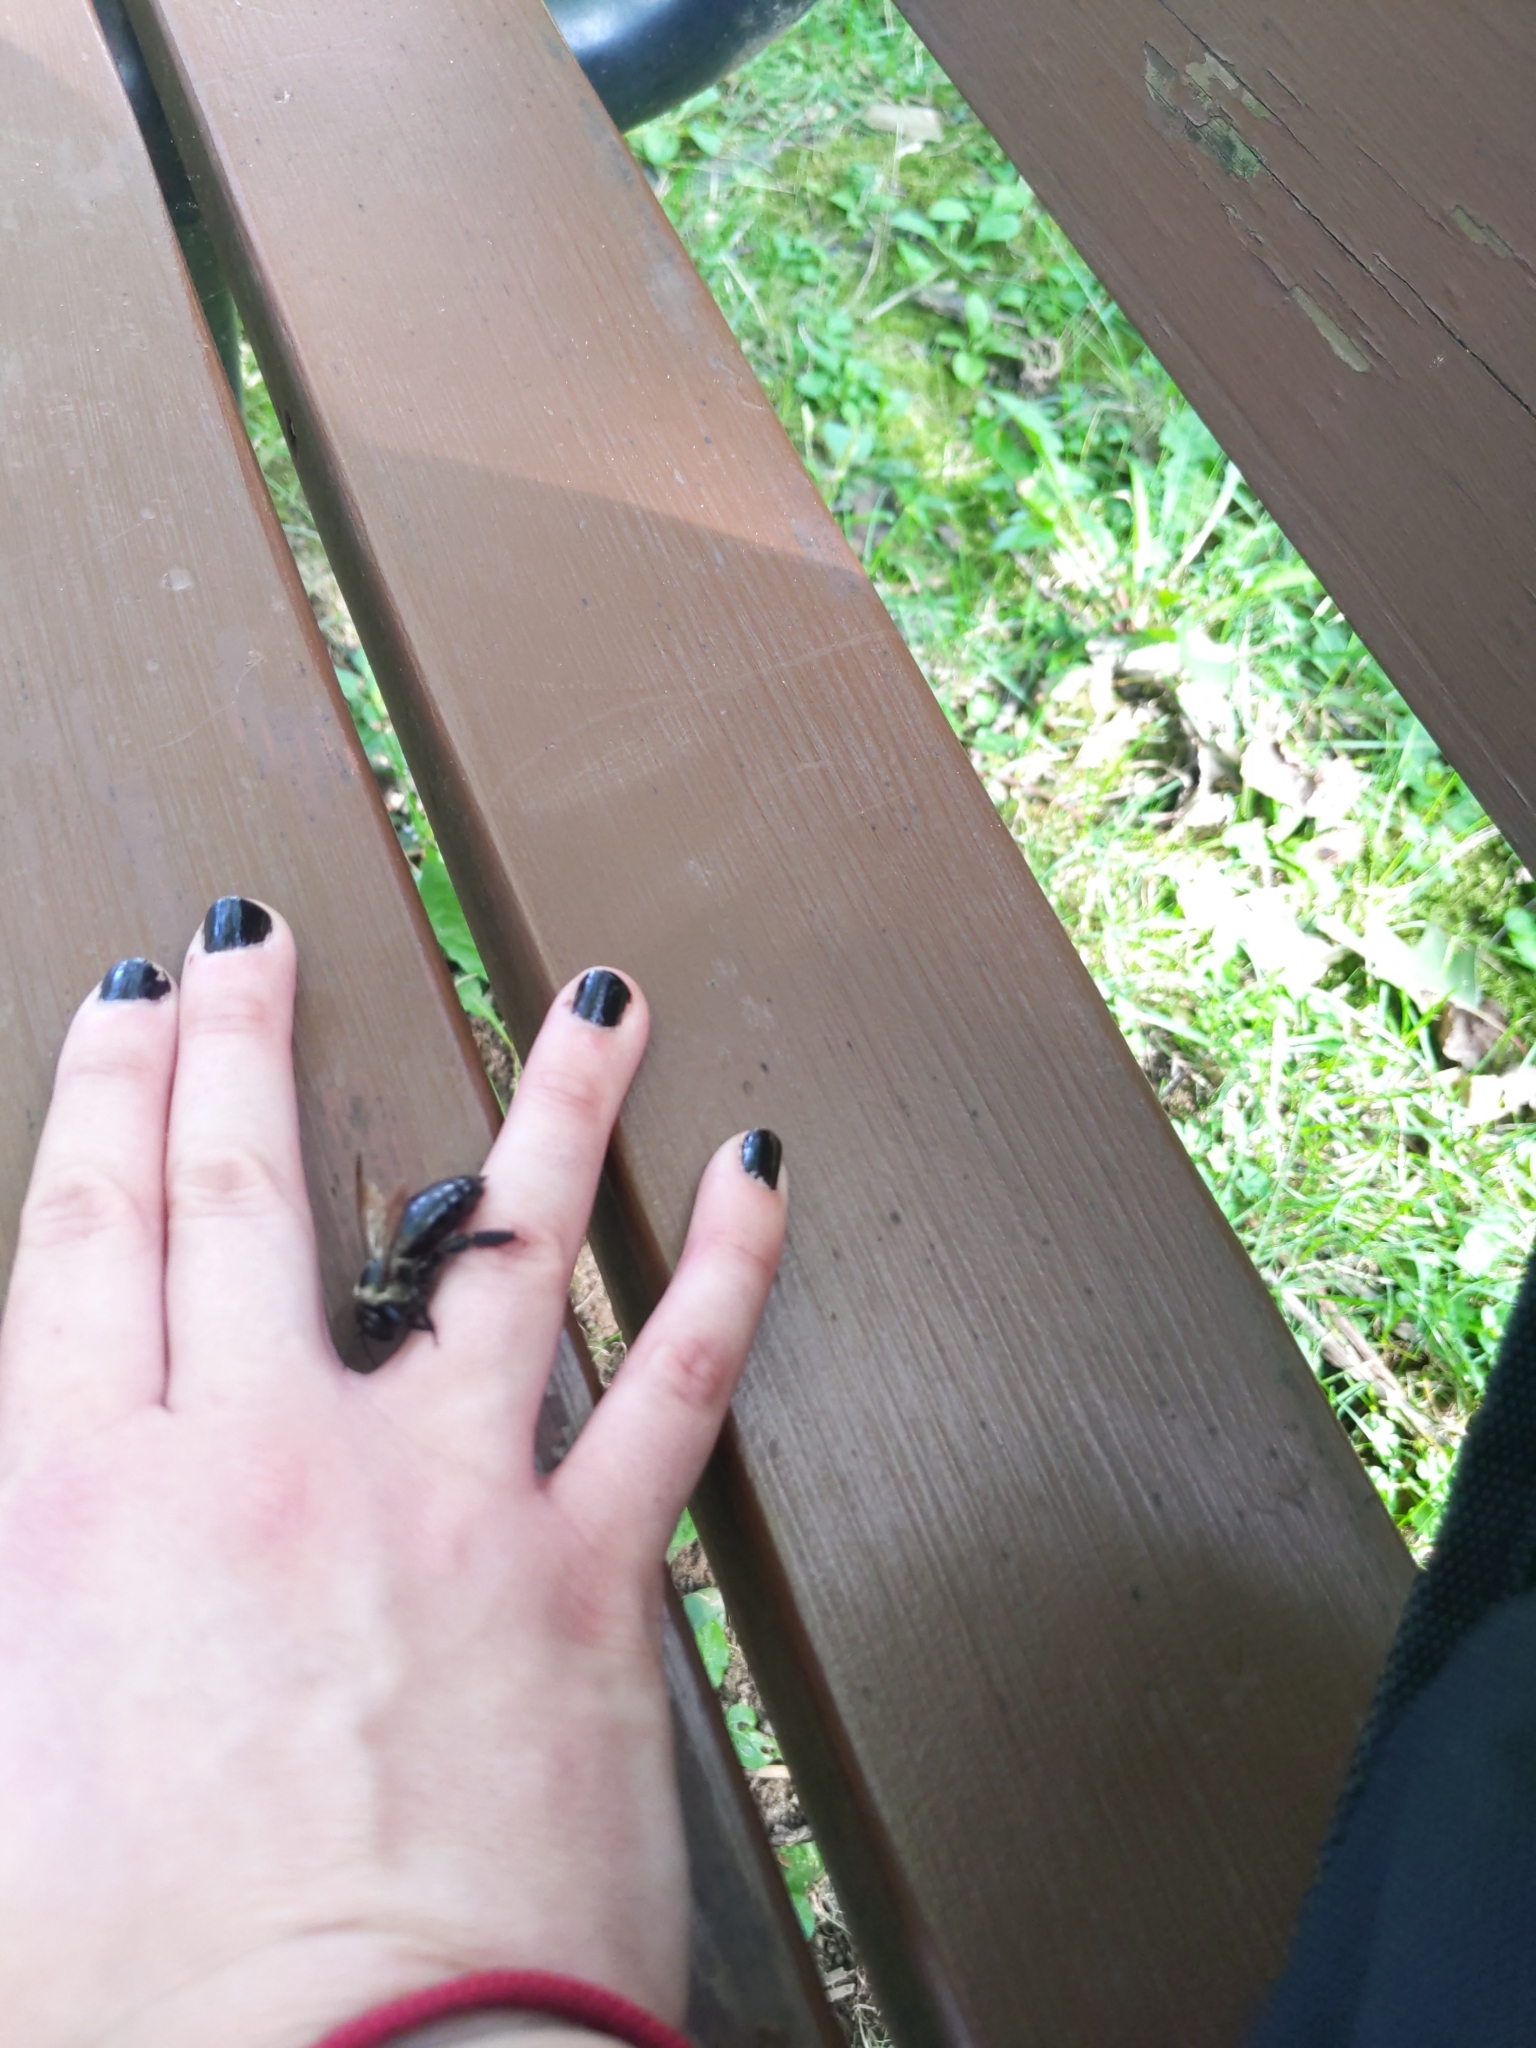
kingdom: Animalia
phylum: Arthropoda
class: Insecta
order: Hymenoptera
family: Apidae
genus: Xylocopa
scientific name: Xylocopa virginica
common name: Carpenter bee
